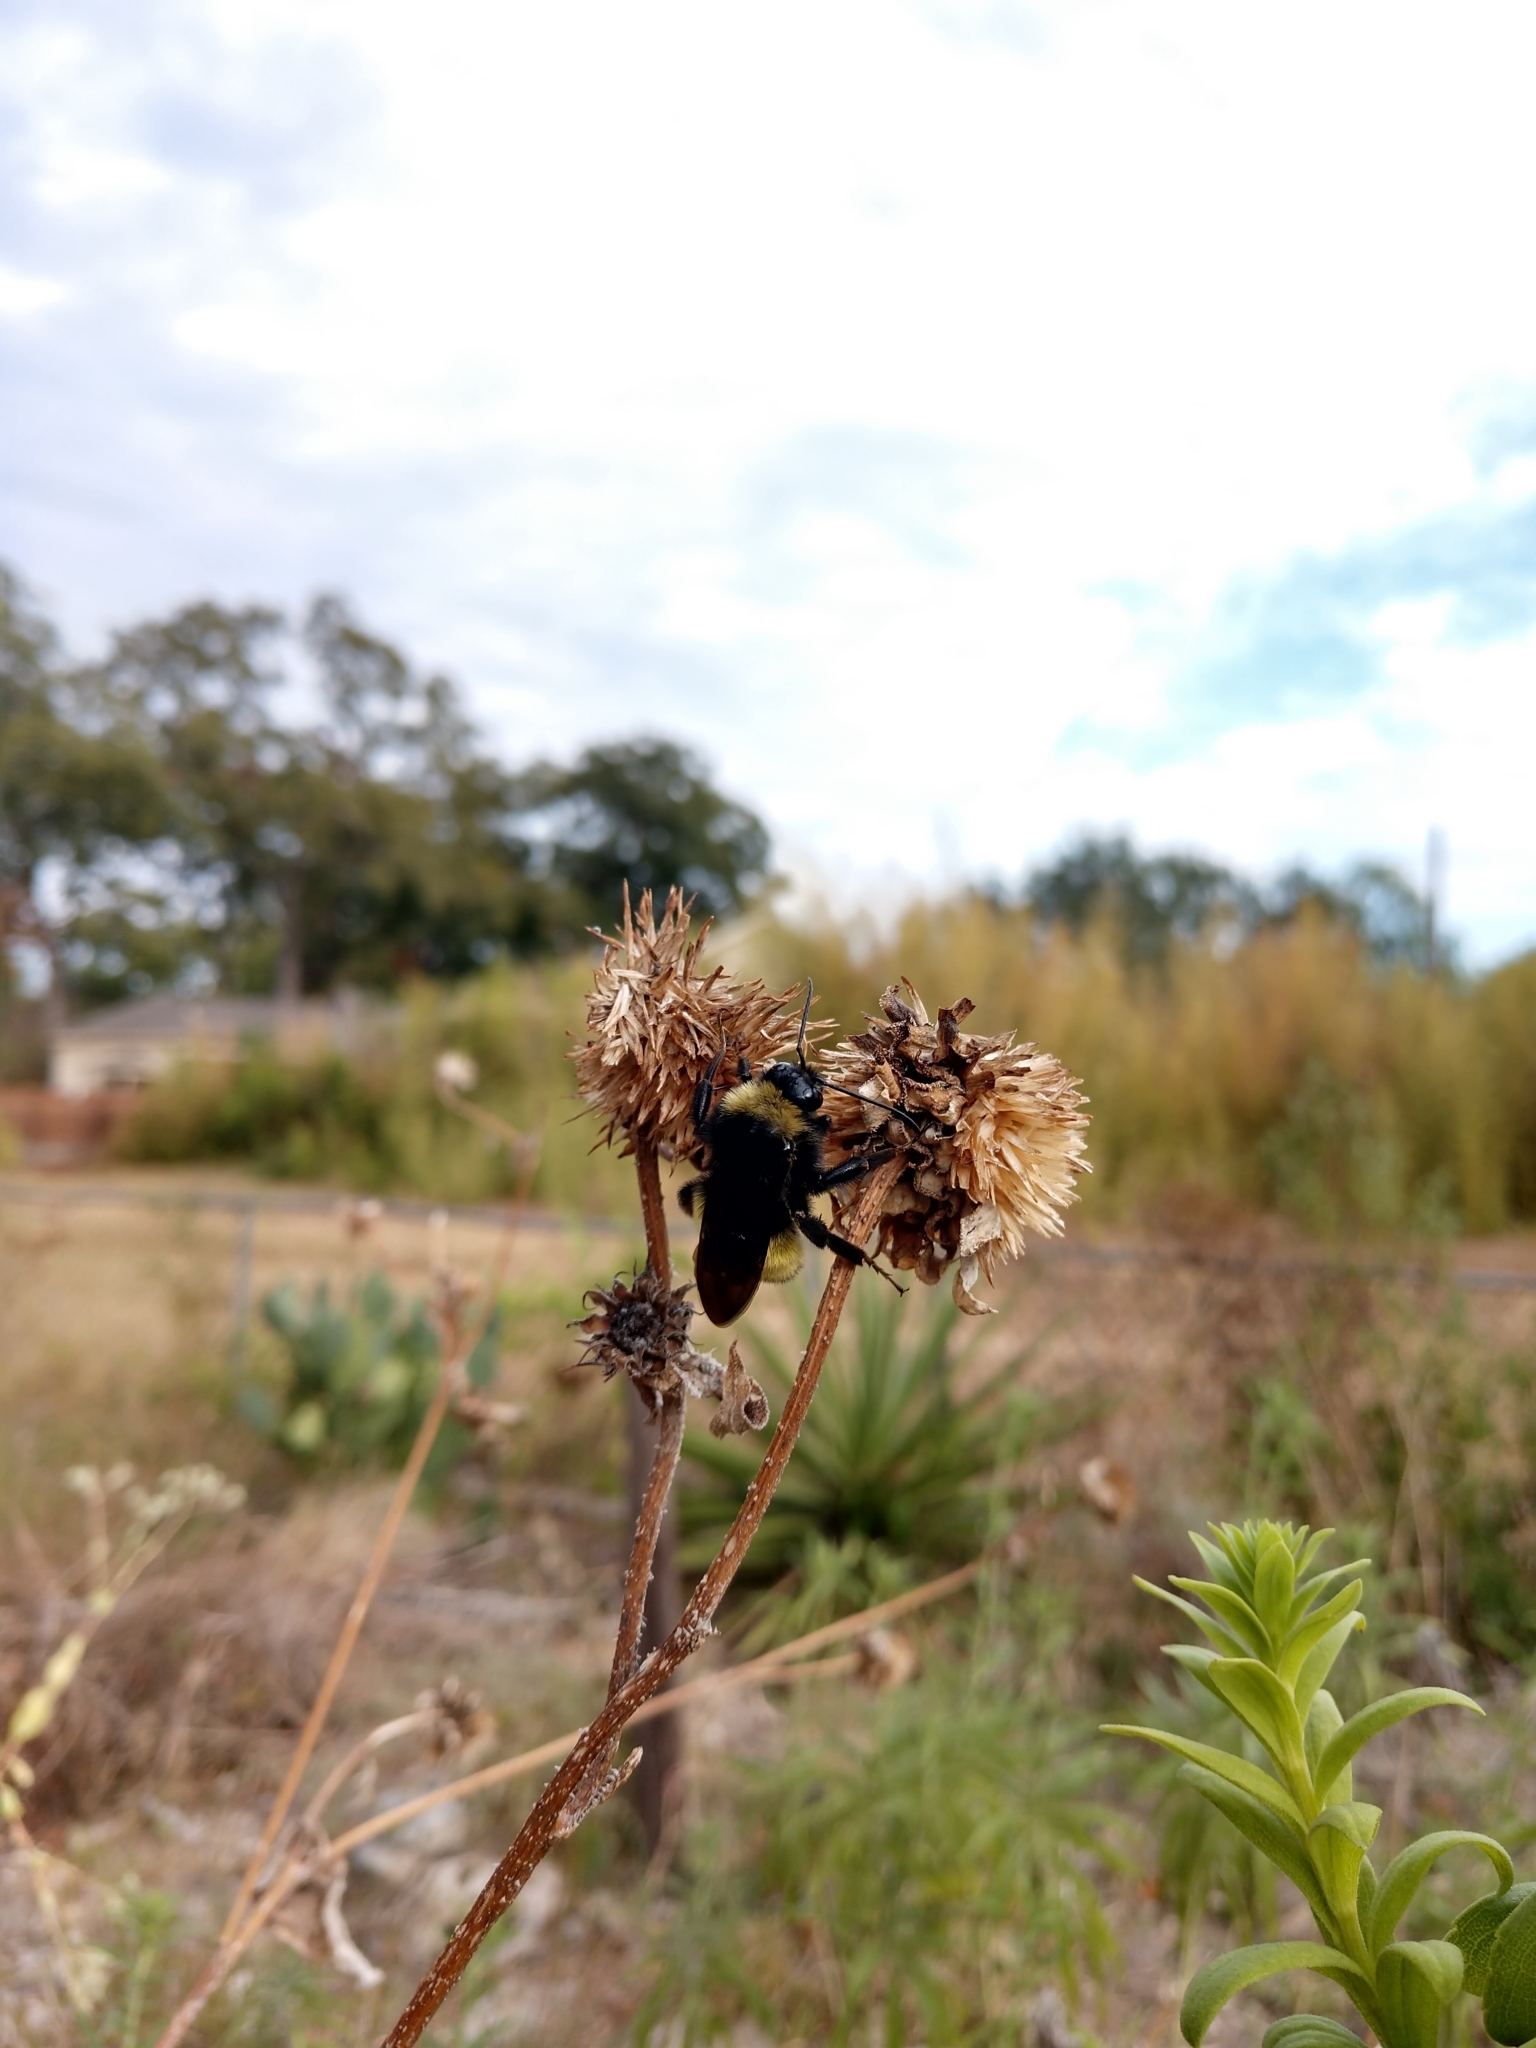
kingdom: Animalia
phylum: Arthropoda
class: Insecta
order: Hymenoptera
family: Apidae
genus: Bombus
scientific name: Bombus pensylvanicus
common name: Bumble bee
